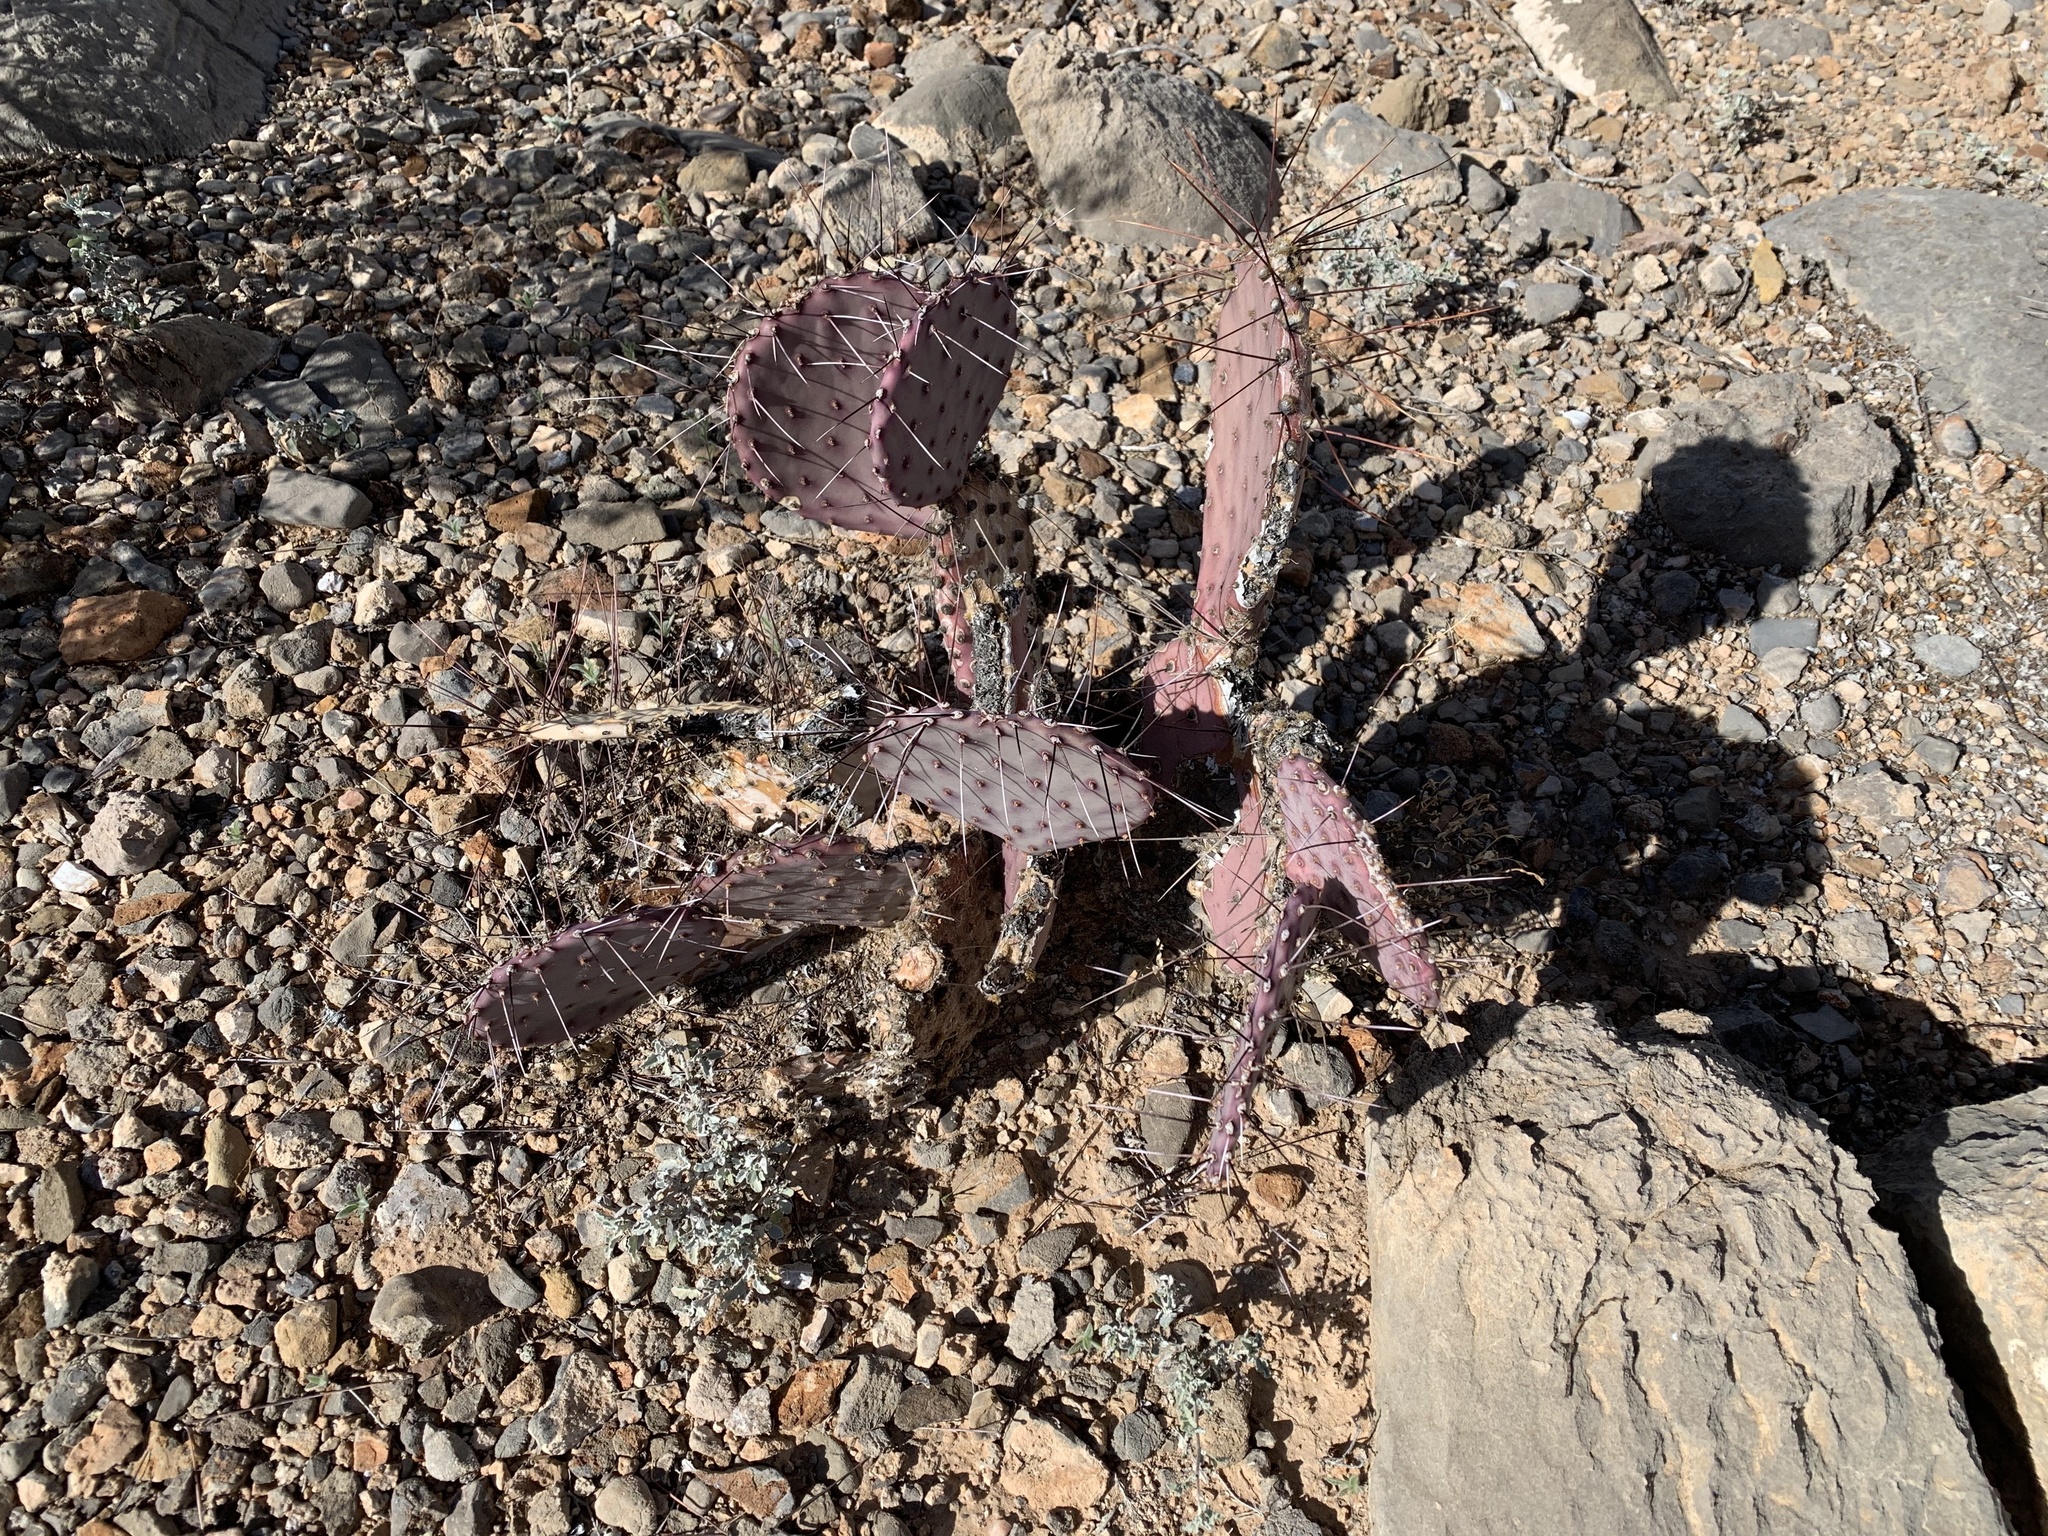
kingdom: Plantae
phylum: Tracheophyta
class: Magnoliopsida
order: Caryophyllales
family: Cactaceae
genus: Opuntia
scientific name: Opuntia macrocentra
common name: Purple prickly-pear
